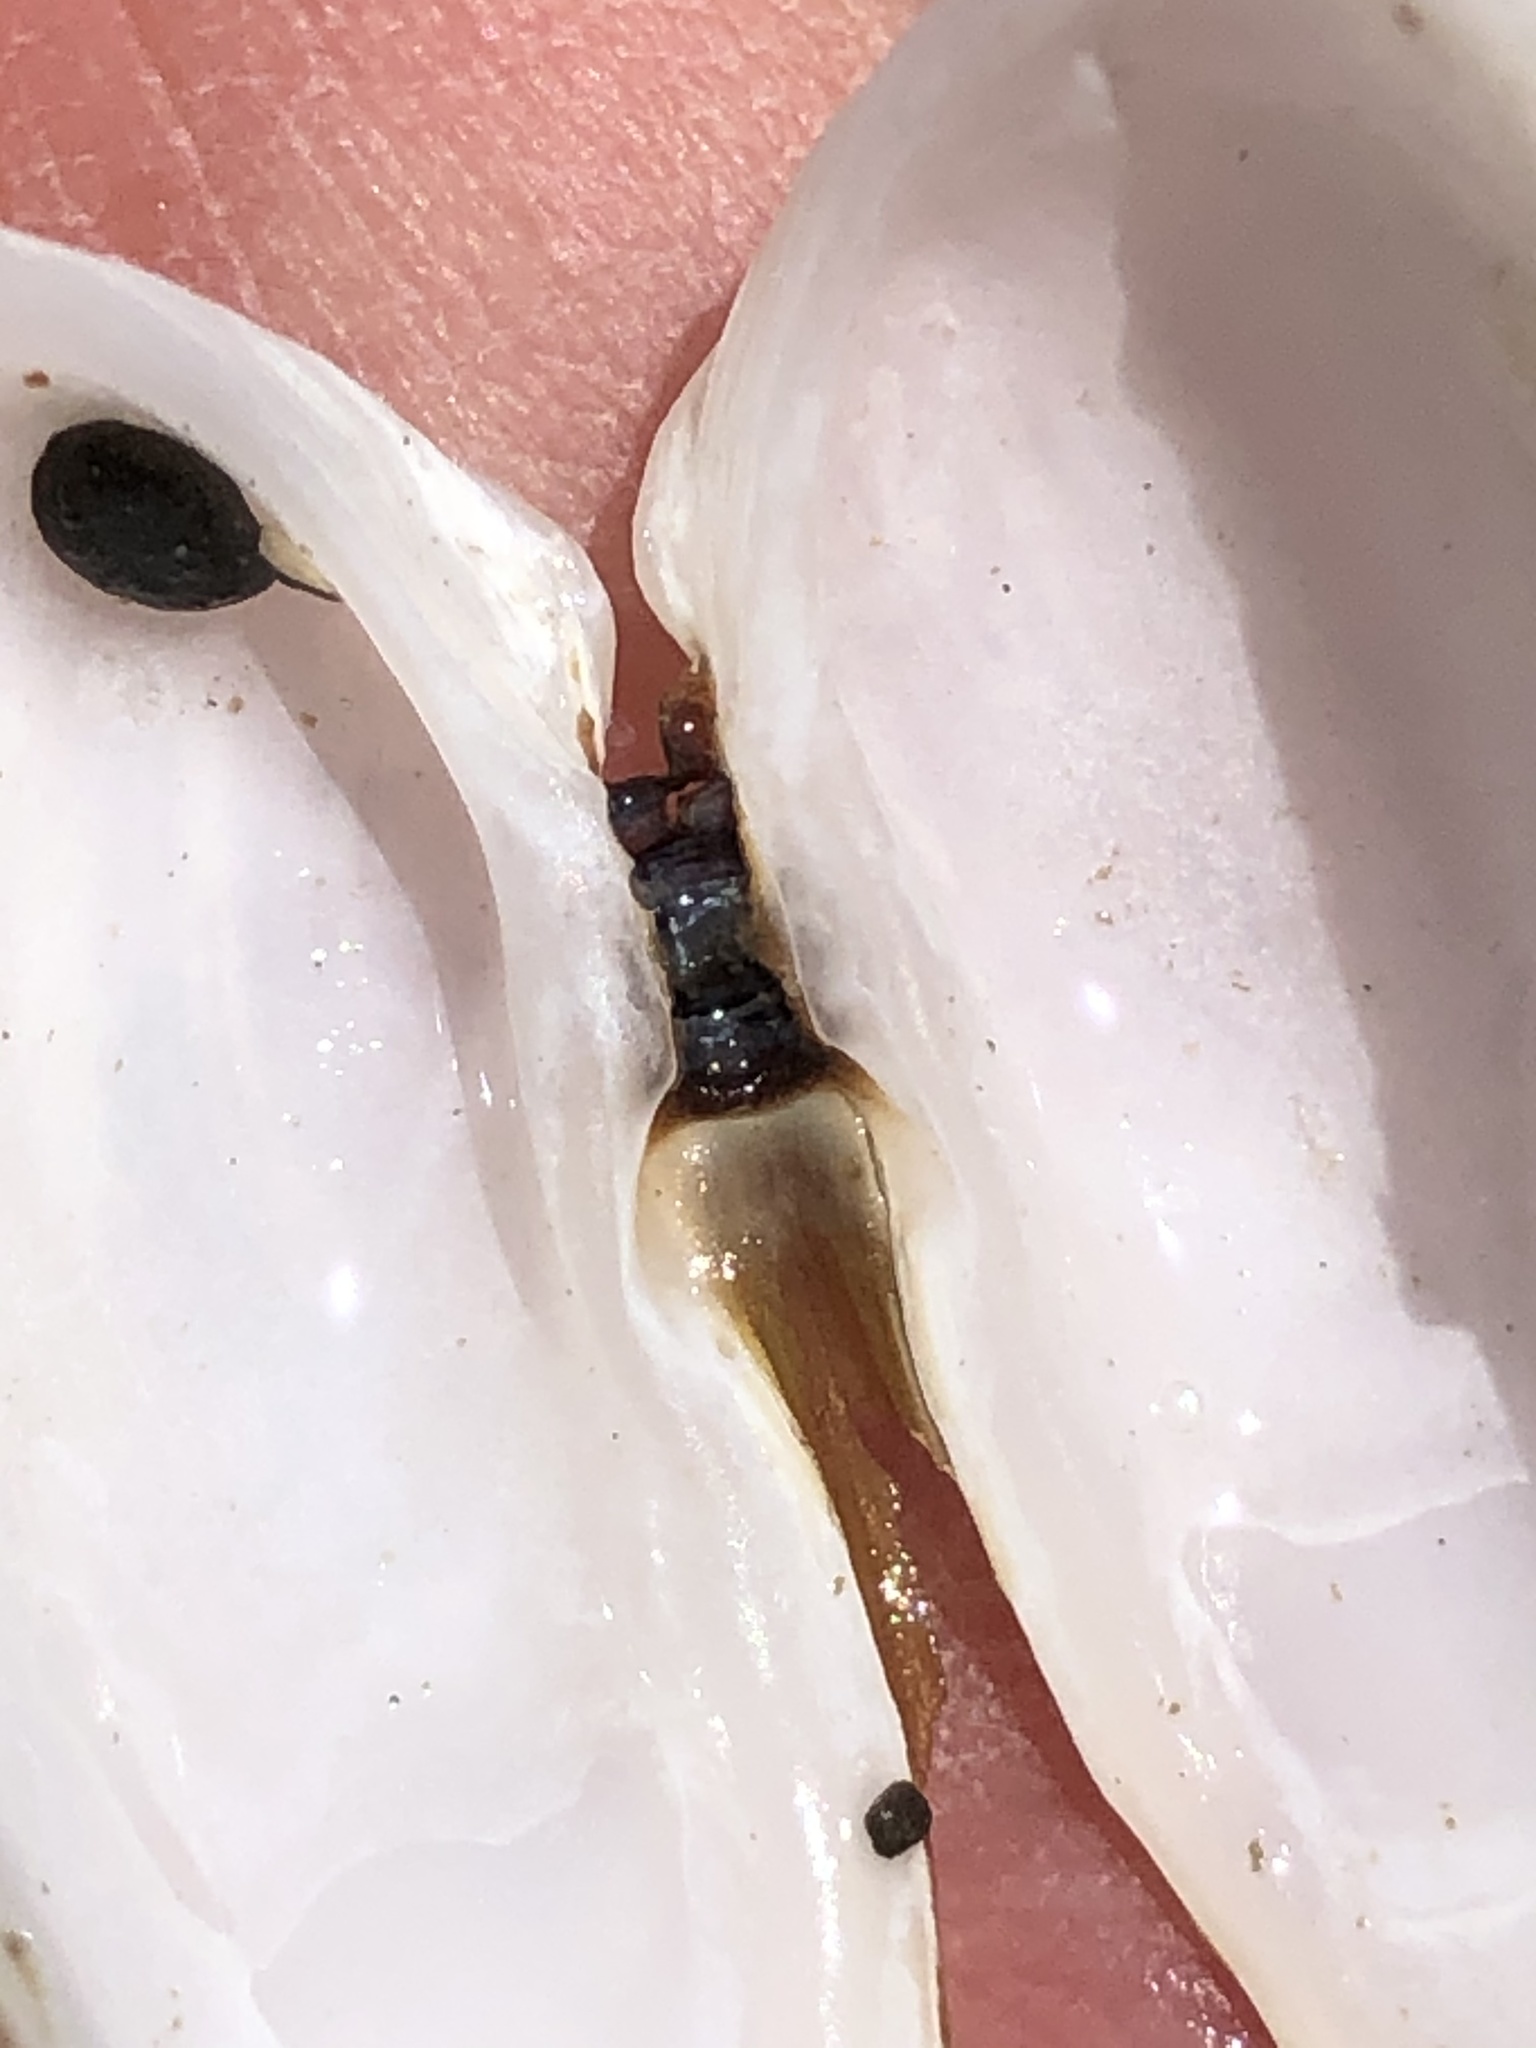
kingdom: Animalia
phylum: Mollusca
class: Bivalvia
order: Adapedonta
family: Hiatellidae
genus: Hiatella
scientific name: Hiatella arctica
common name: Arctic hiatella
